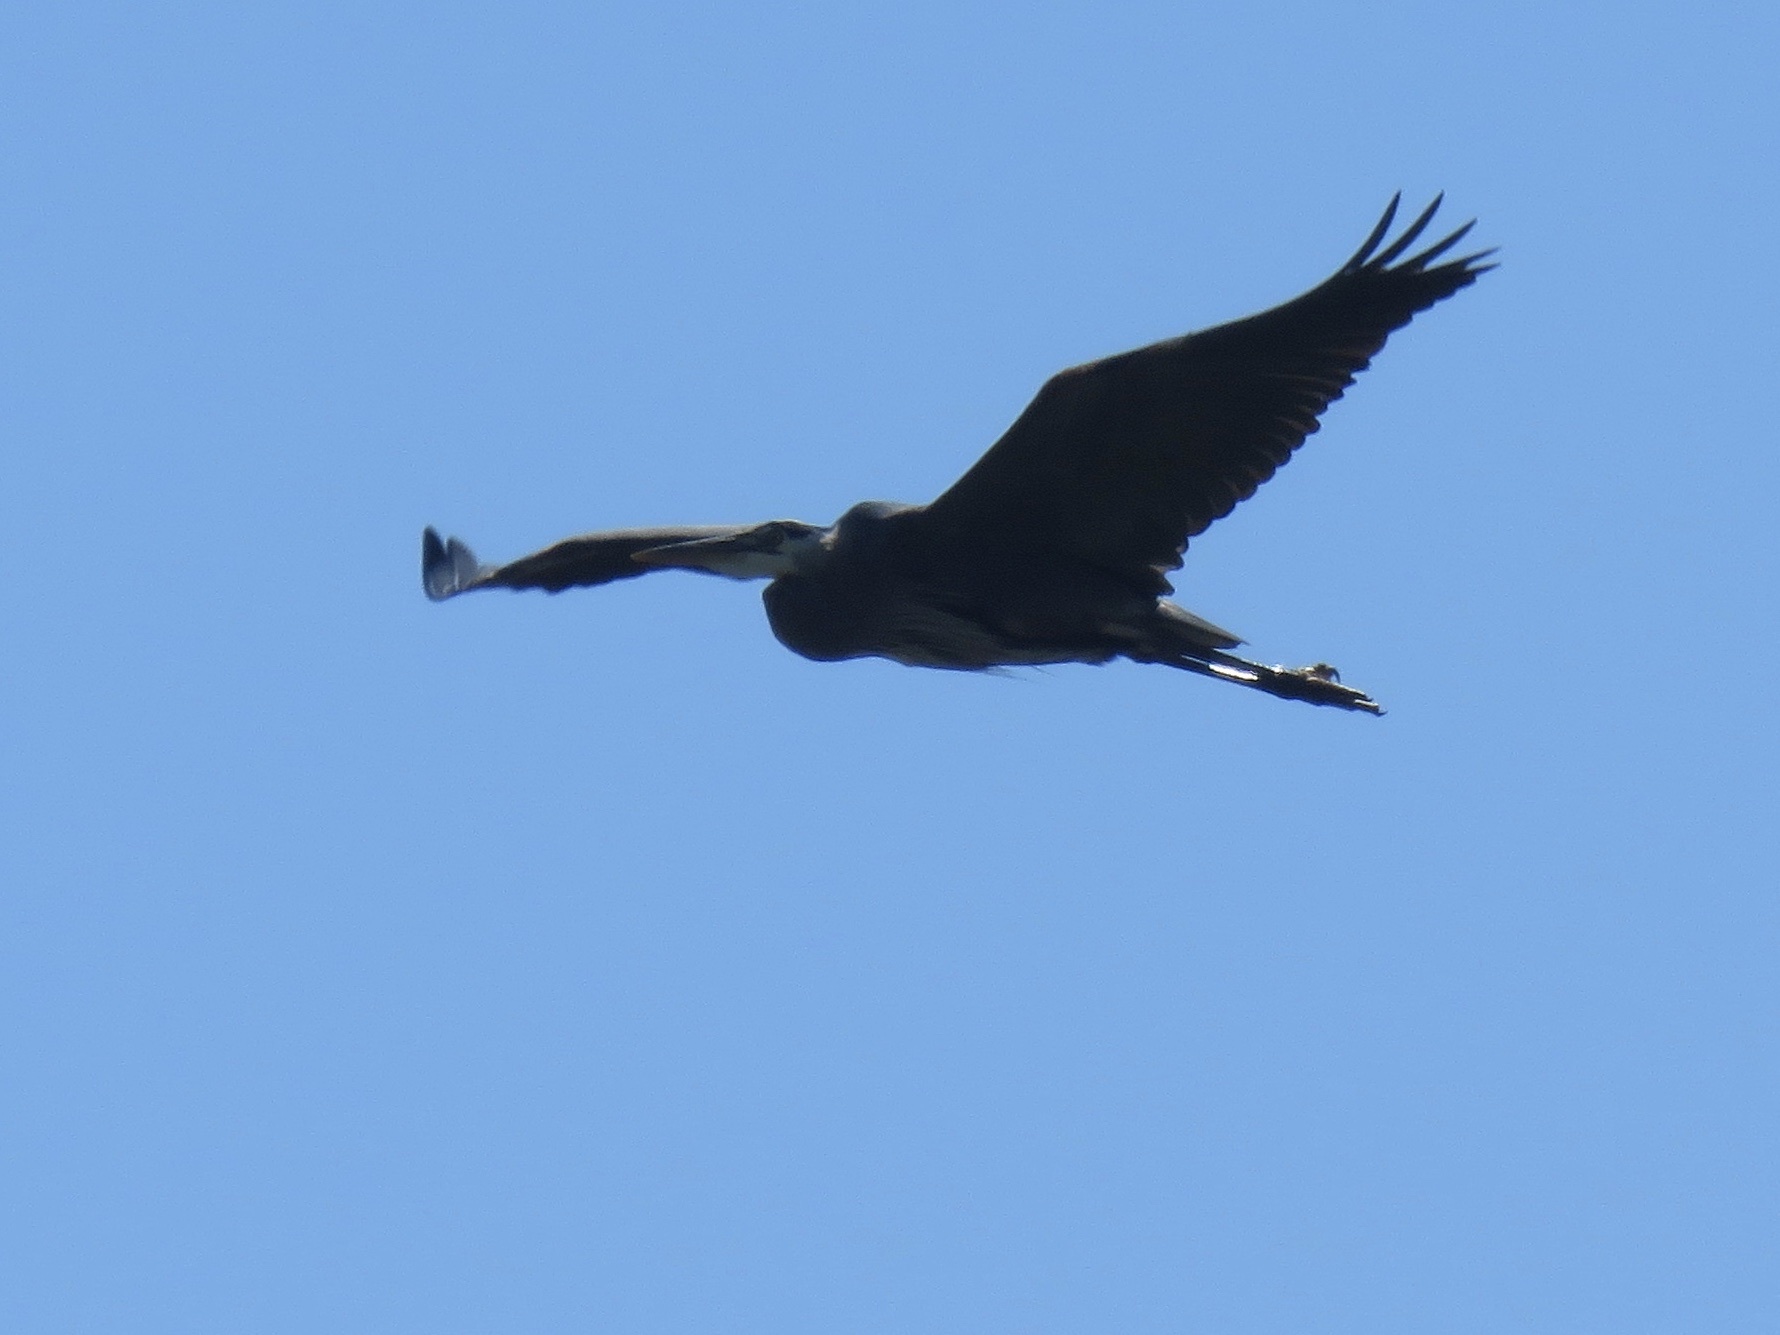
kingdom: Animalia
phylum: Chordata
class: Aves
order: Pelecaniformes
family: Ardeidae
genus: Ardea
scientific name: Ardea herodias
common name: Great blue heron
